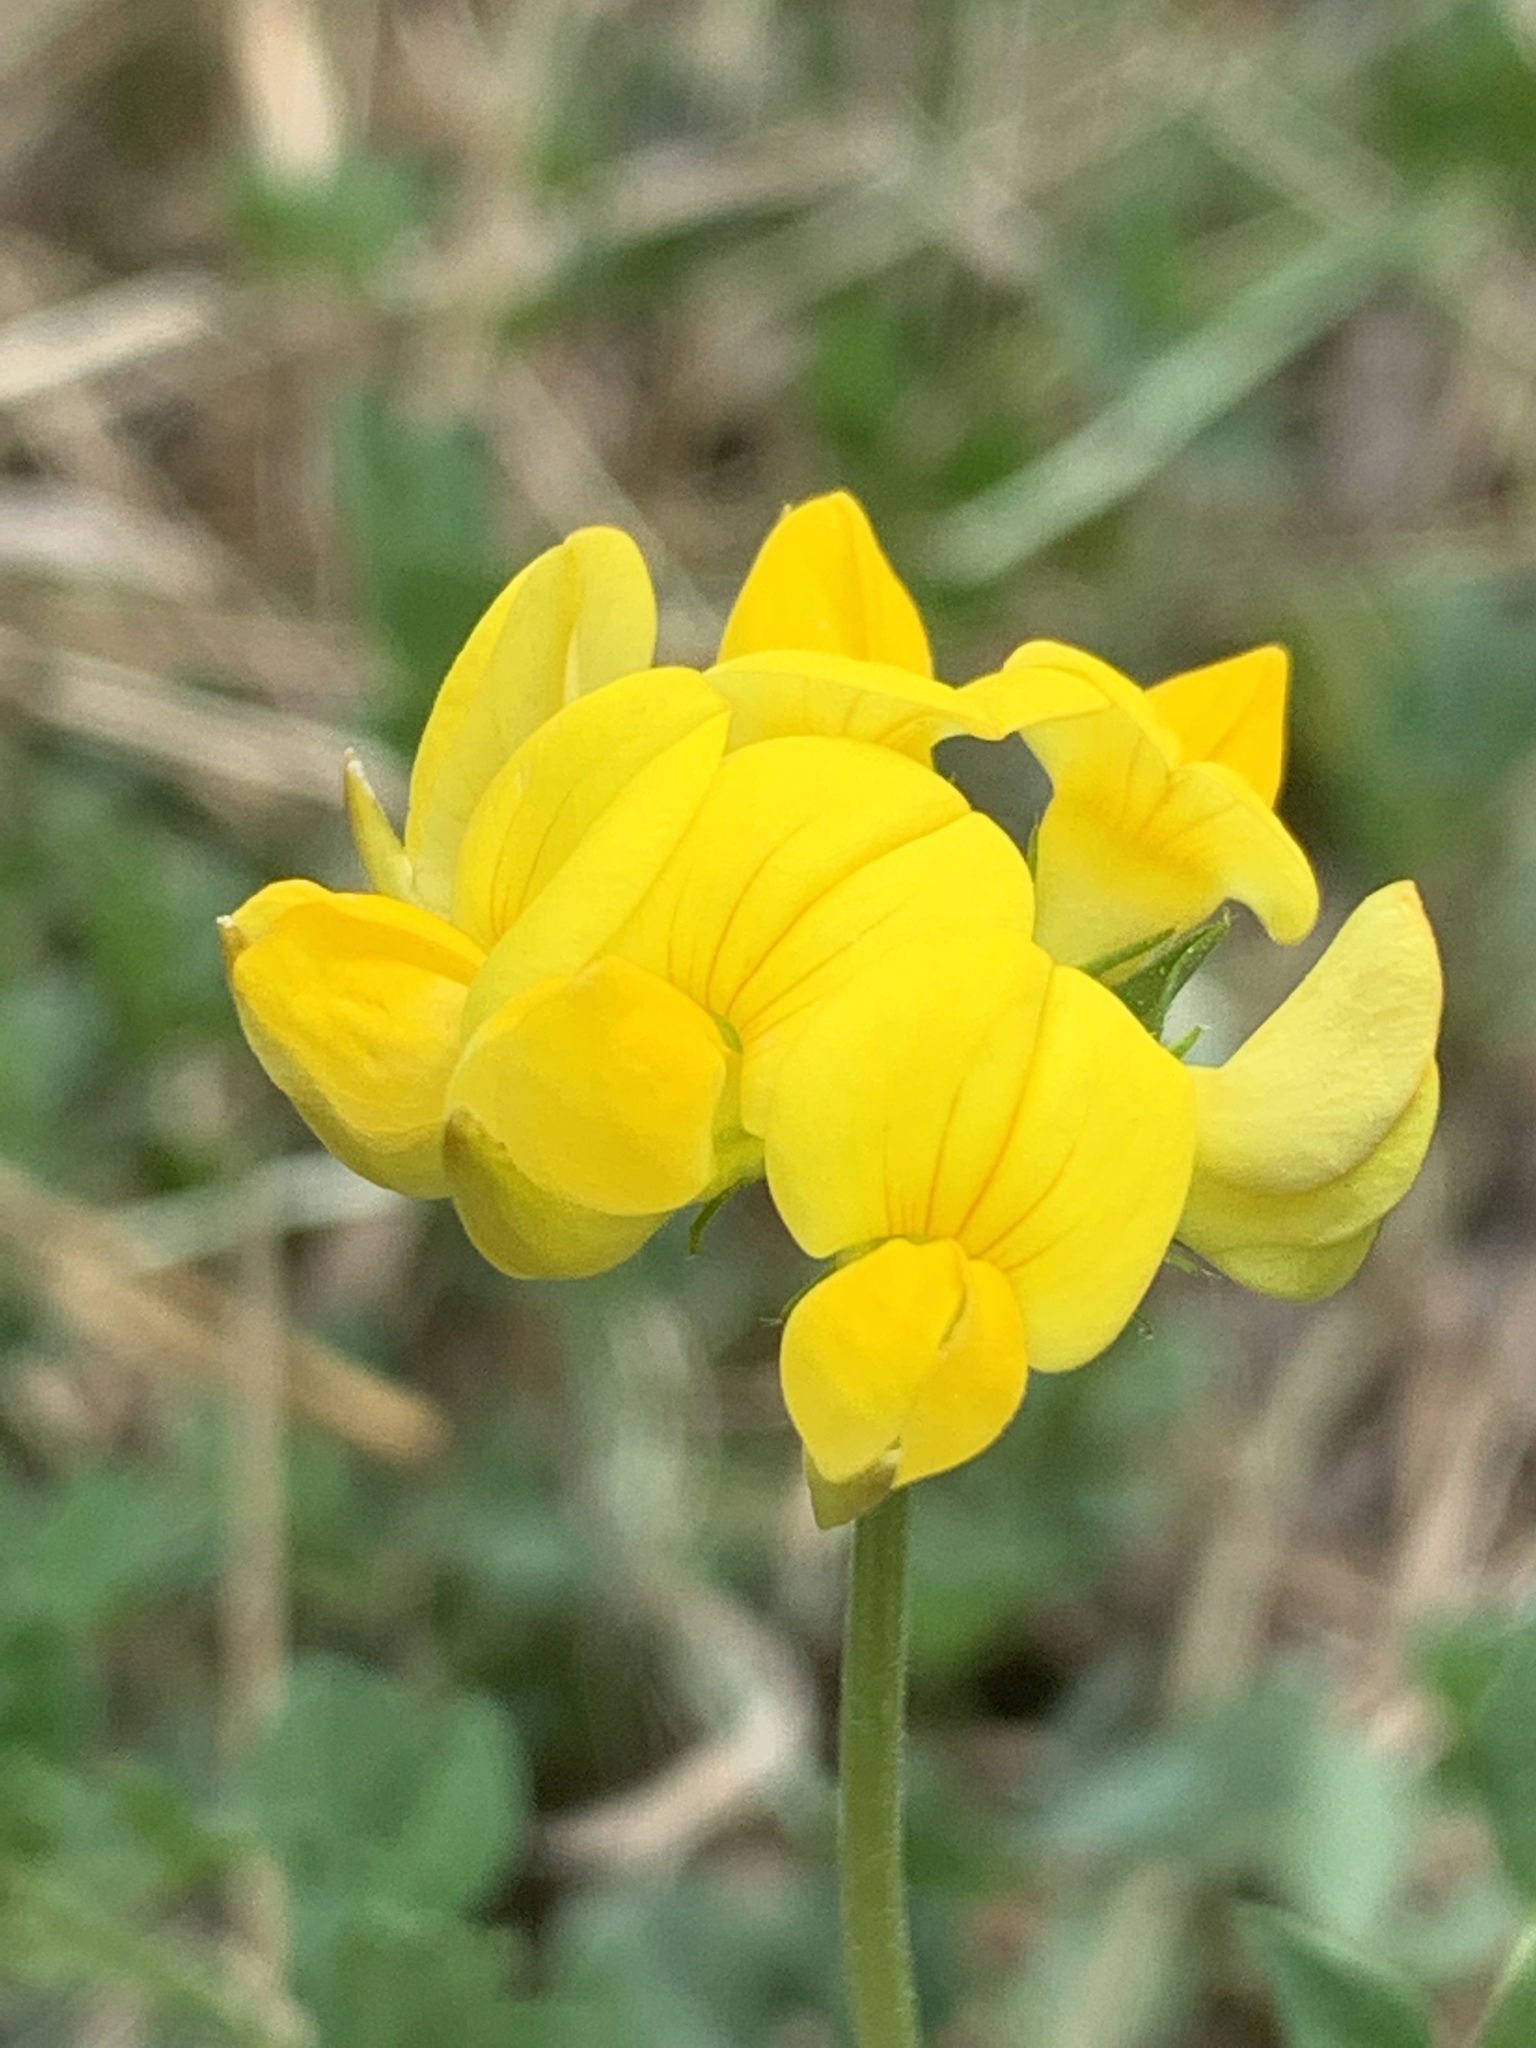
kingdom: Plantae
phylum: Tracheophyta
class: Magnoliopsida
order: Fabales
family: Fabaceae
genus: Lotus
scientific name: Lotus corniculatus
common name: Common bird's-foot-trefoil
